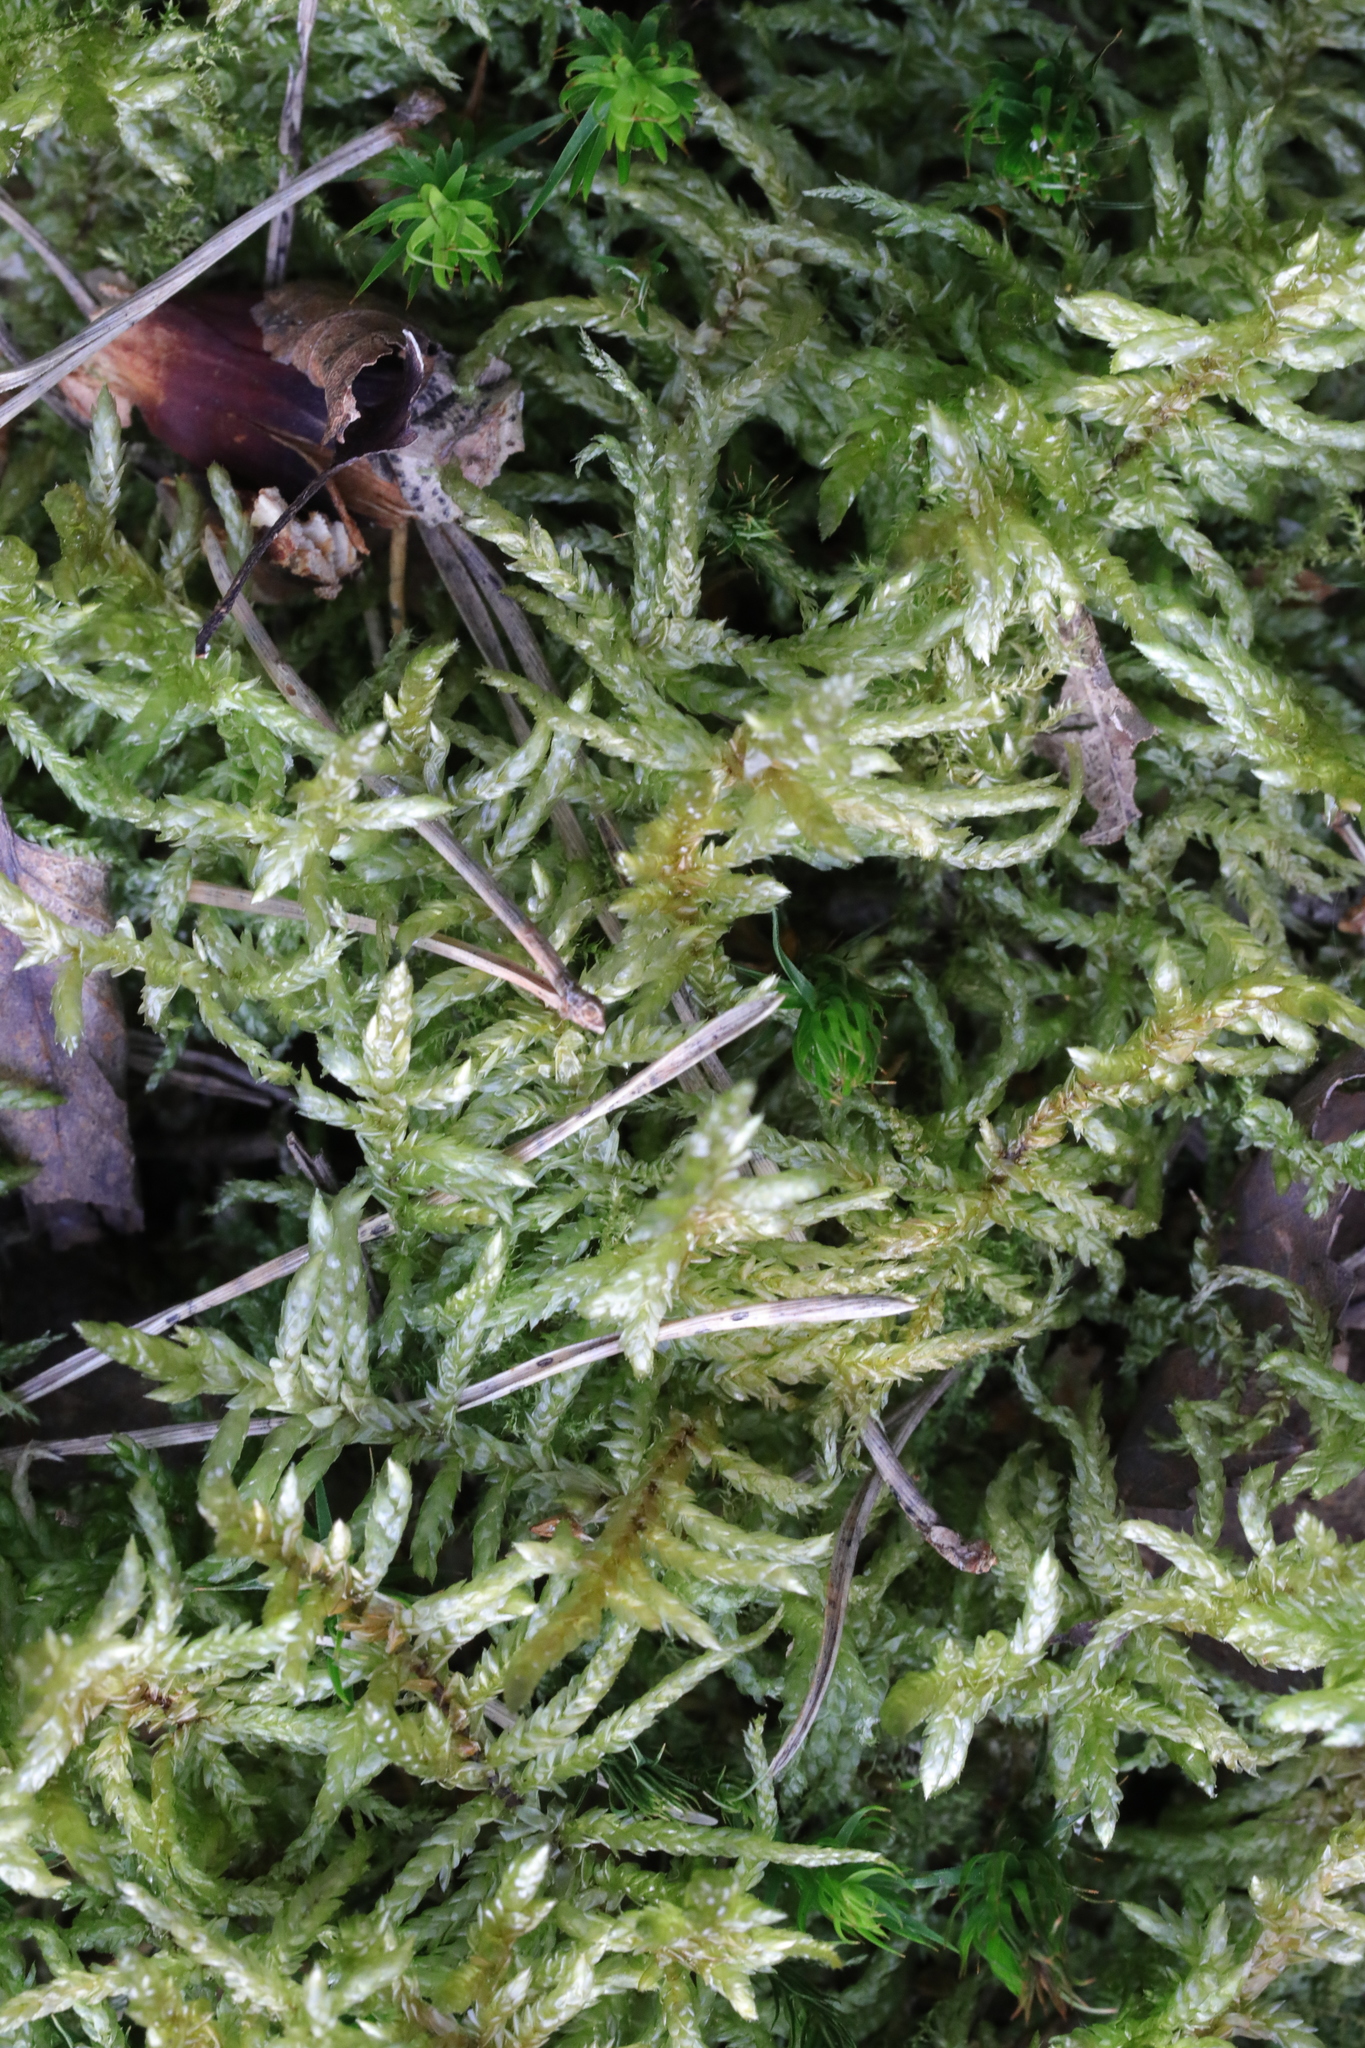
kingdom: Plantae
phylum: Bryophyta
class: Bryopsida
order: Hypnales
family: Brachytheciaceae
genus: Pseudoscleropodium
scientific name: Pseudoscleropodium purum
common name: Neat feather-moss
